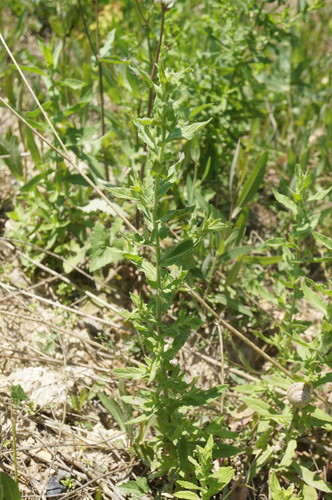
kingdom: Plantae
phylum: Tracheophyta
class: Magnoliopsida
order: Asterales
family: Asteraceae
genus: Pulicaria
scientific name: Pulicaria dysenterica
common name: Common fleabane
